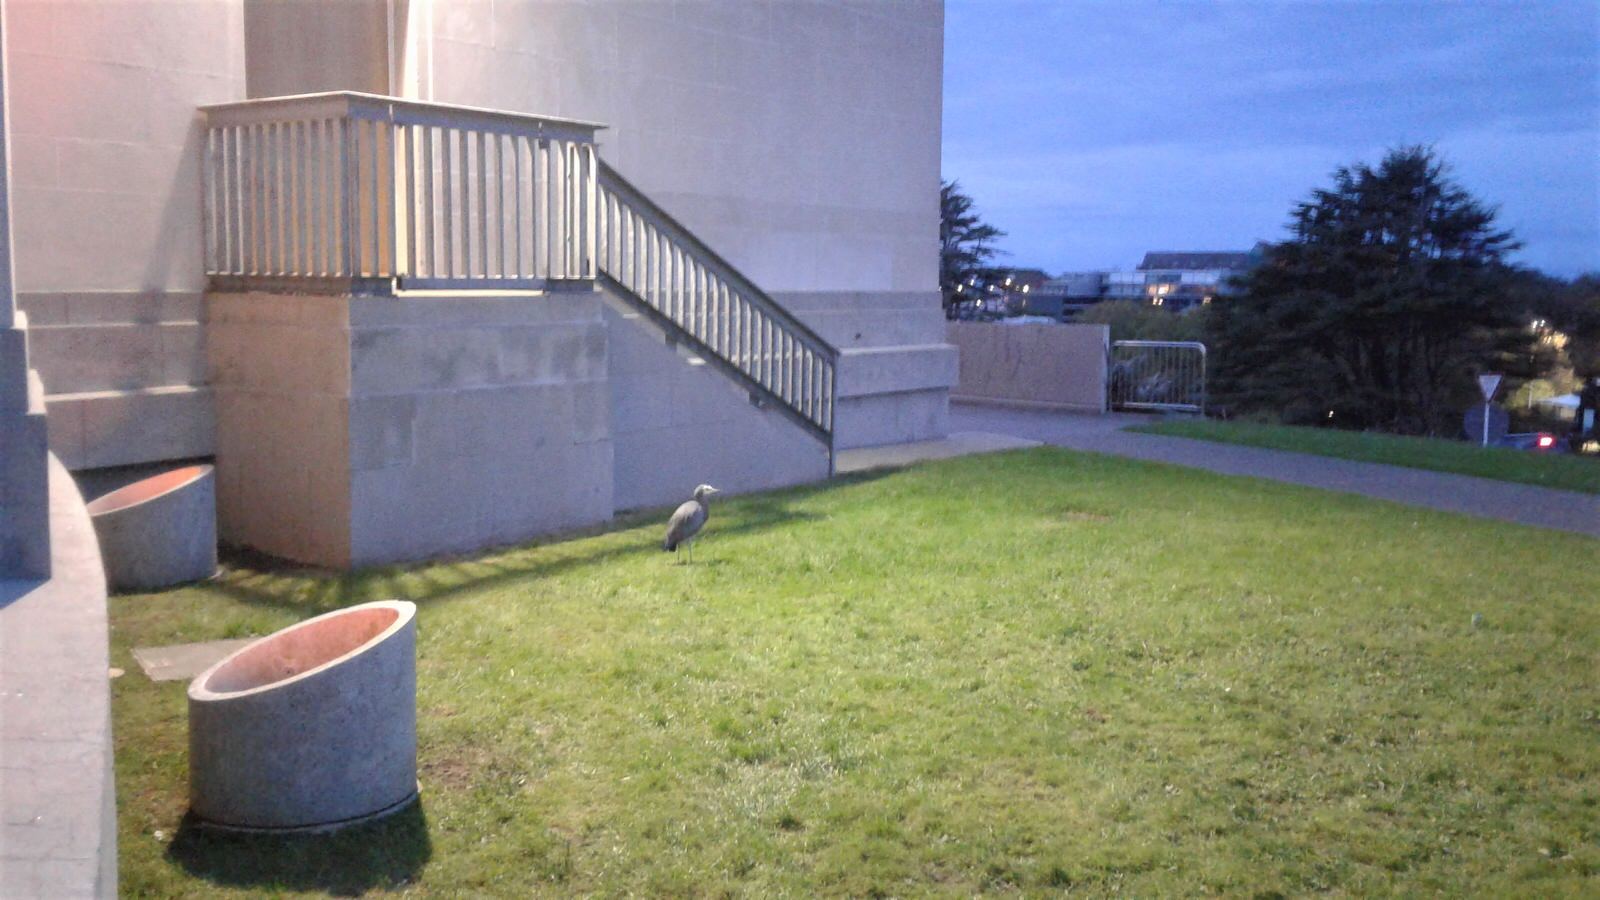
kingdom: Animalia
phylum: Chordata
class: Aves
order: Pelecaniformes
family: Ardeidae
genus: Egretta
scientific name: Egretta novaehollandiae
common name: White-faced heron
